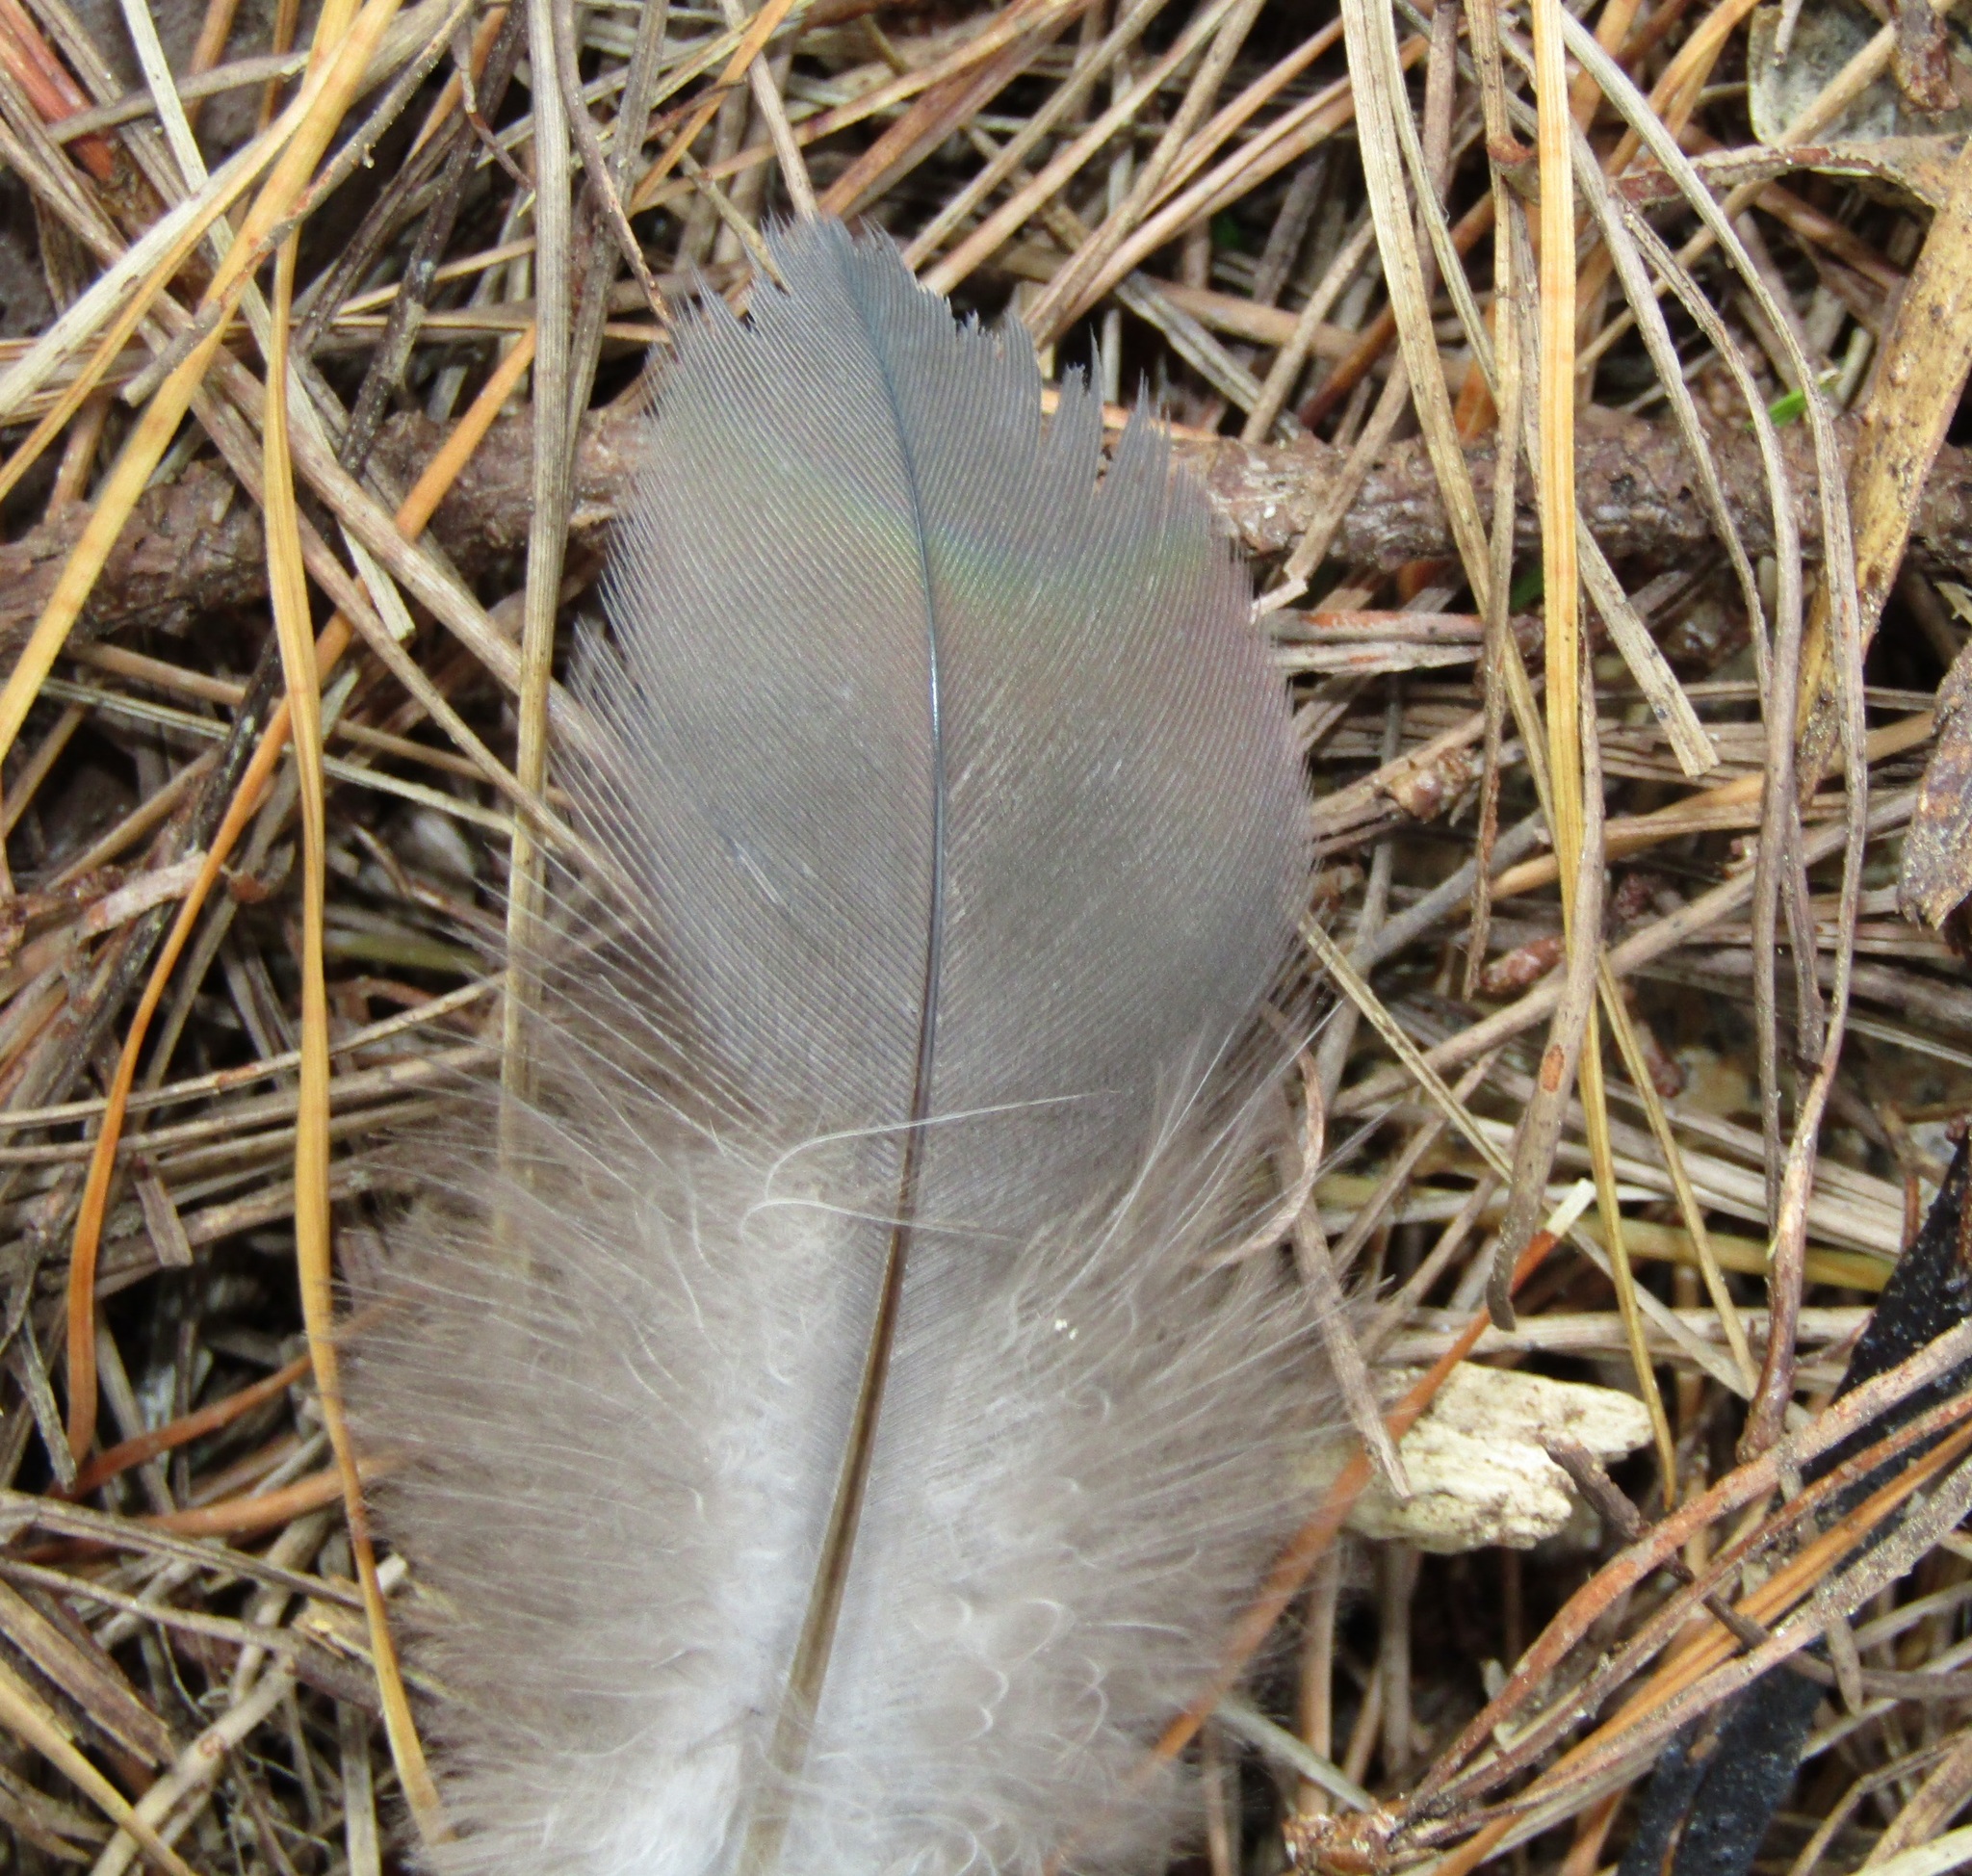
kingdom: Animalia
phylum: Chordata
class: Aves
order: Columbiformes
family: Columbidae
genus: Hemiphaga
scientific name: Hemiphaga novaeseelandiae
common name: New zealand pigeon
